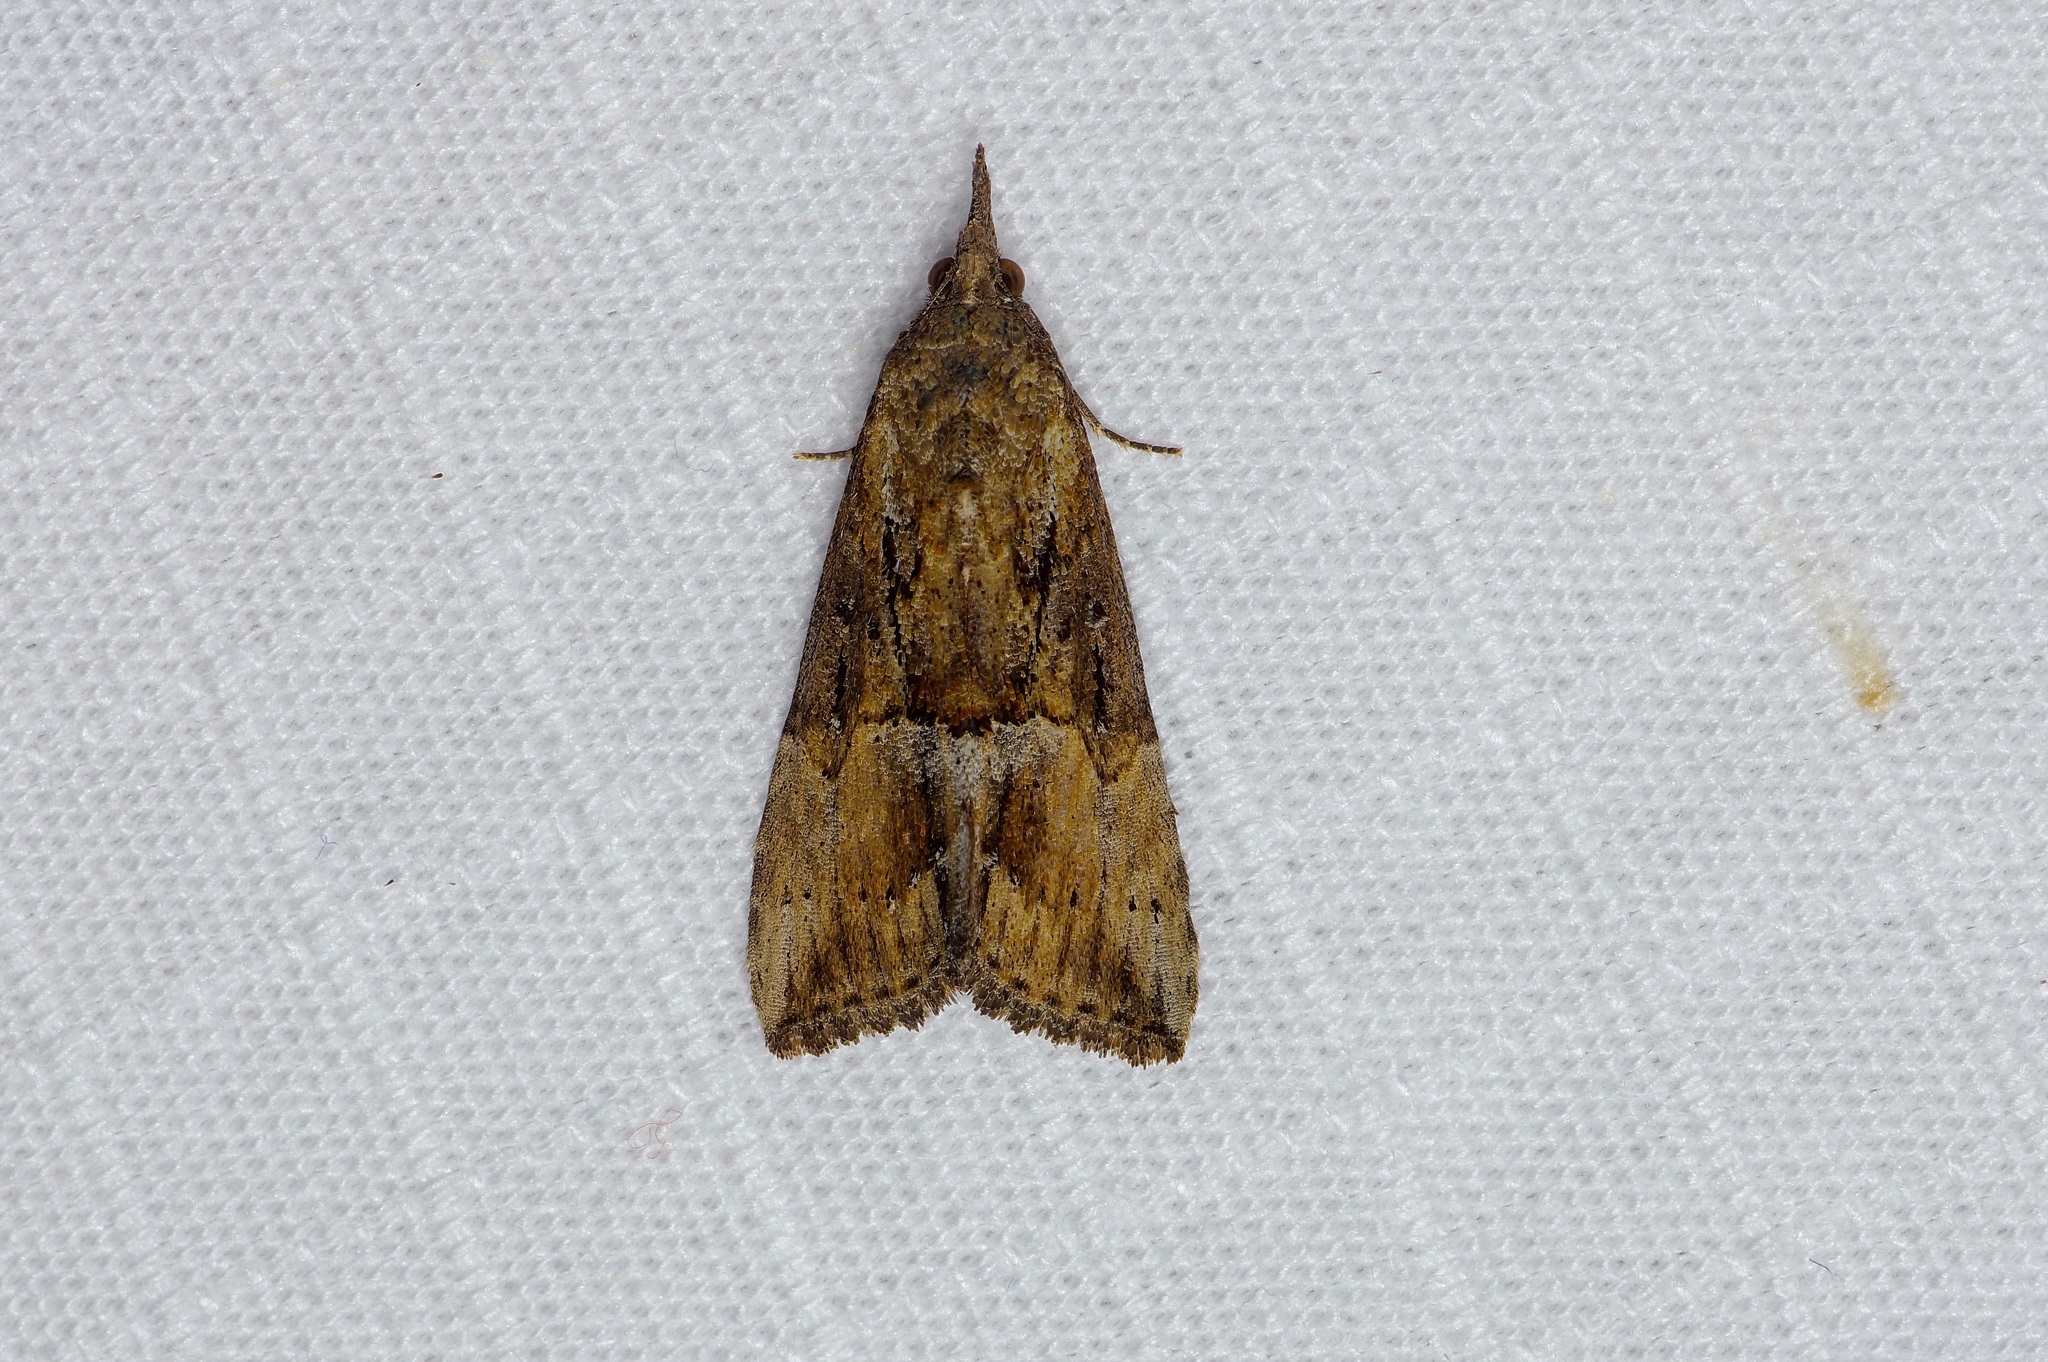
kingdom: Animalia
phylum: Arthropoda
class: Insecta
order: Lepidoptera
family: Erebidae
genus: Hypena
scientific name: Hypena scabra
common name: Green cloverworm
